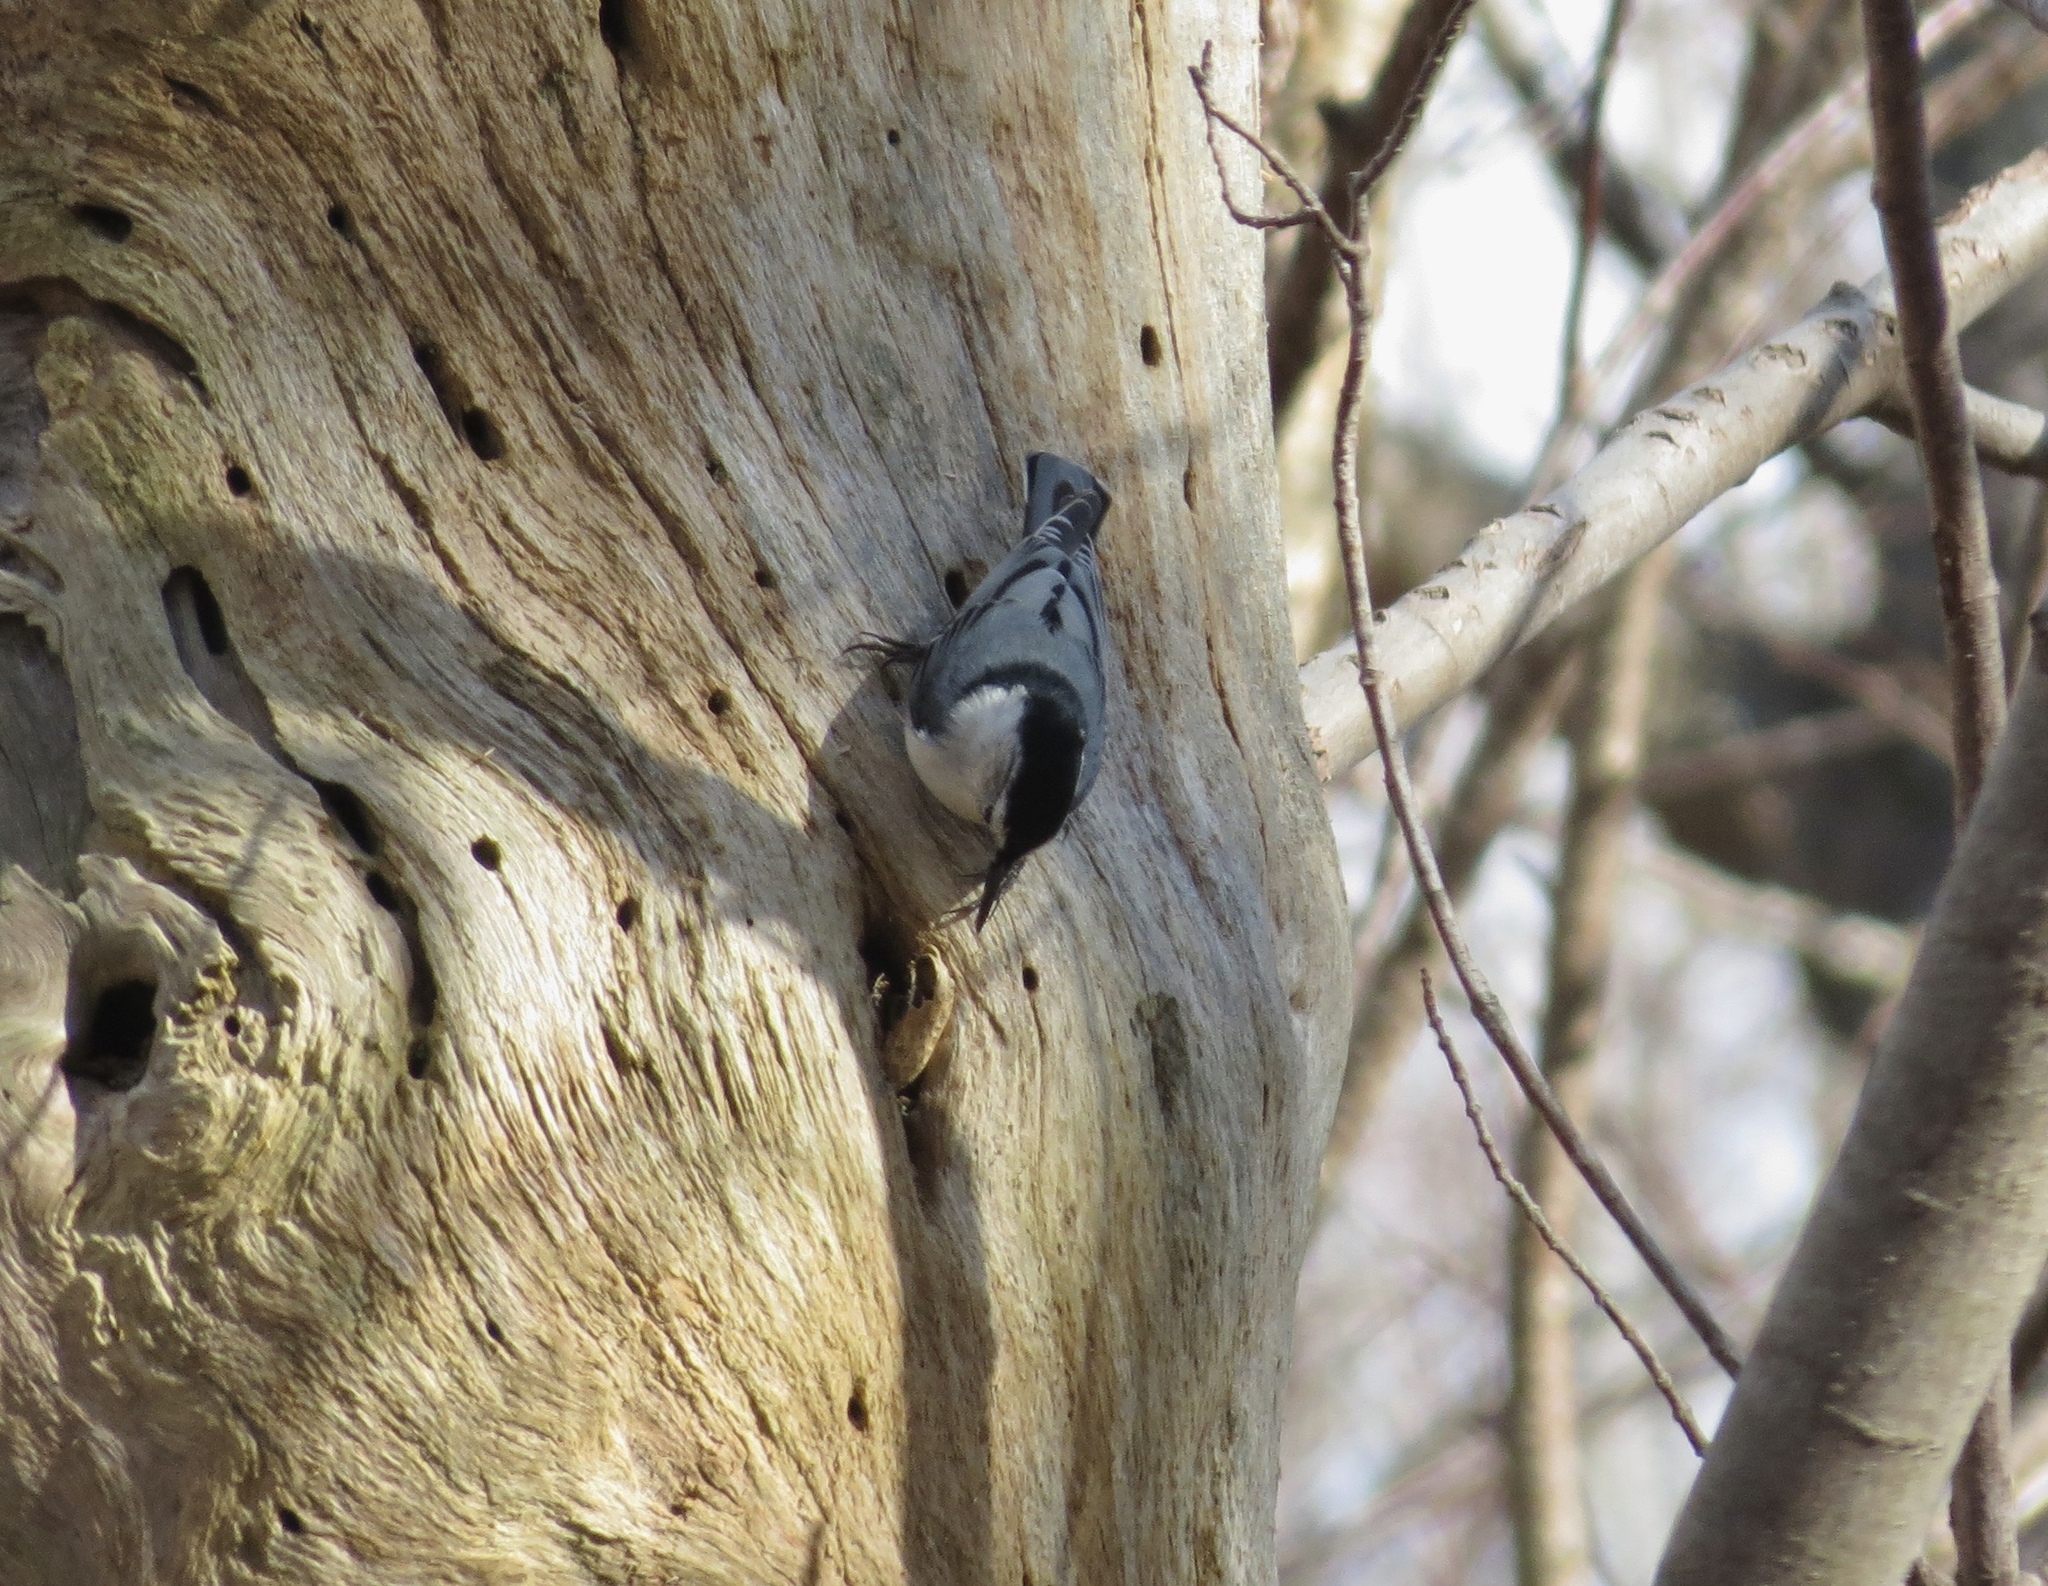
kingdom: Animalia
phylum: Chordata
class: Aves
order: Passeriformes
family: Sittidae
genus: Sitta
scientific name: Sitta carolinensis
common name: White-breasted nuthatch
